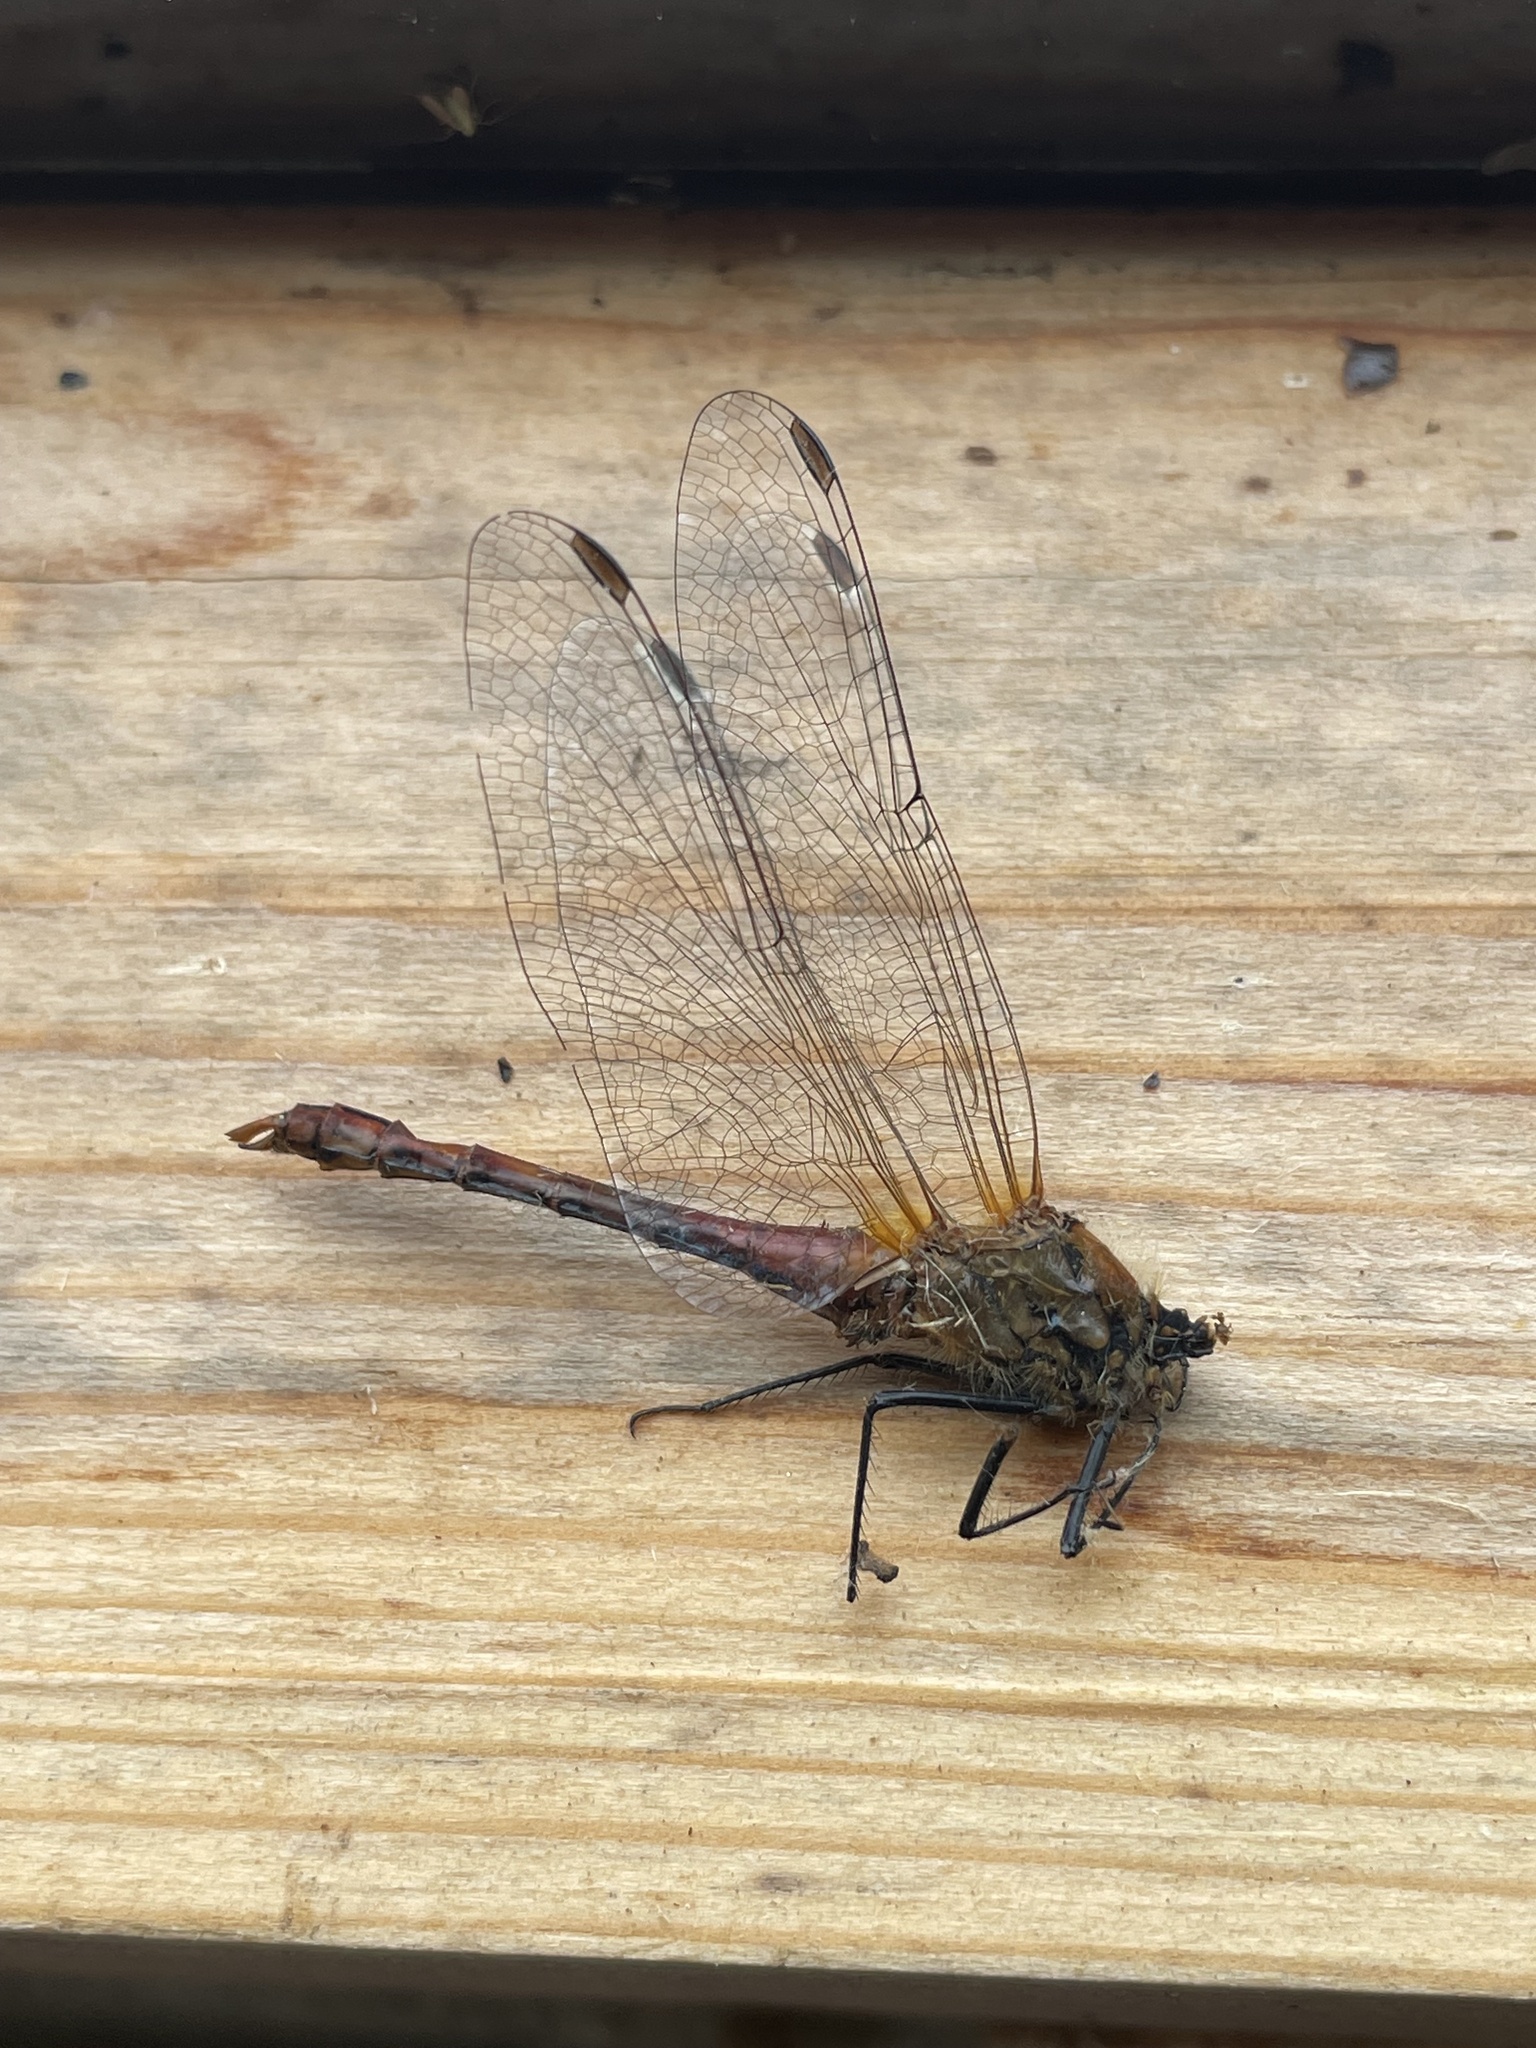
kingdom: Animalia
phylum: Arthropoda
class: Insecta
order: Odonata
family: Libellulidae
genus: Sympetrum
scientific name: Sympetrum sanguineum
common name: Ruddy darter
